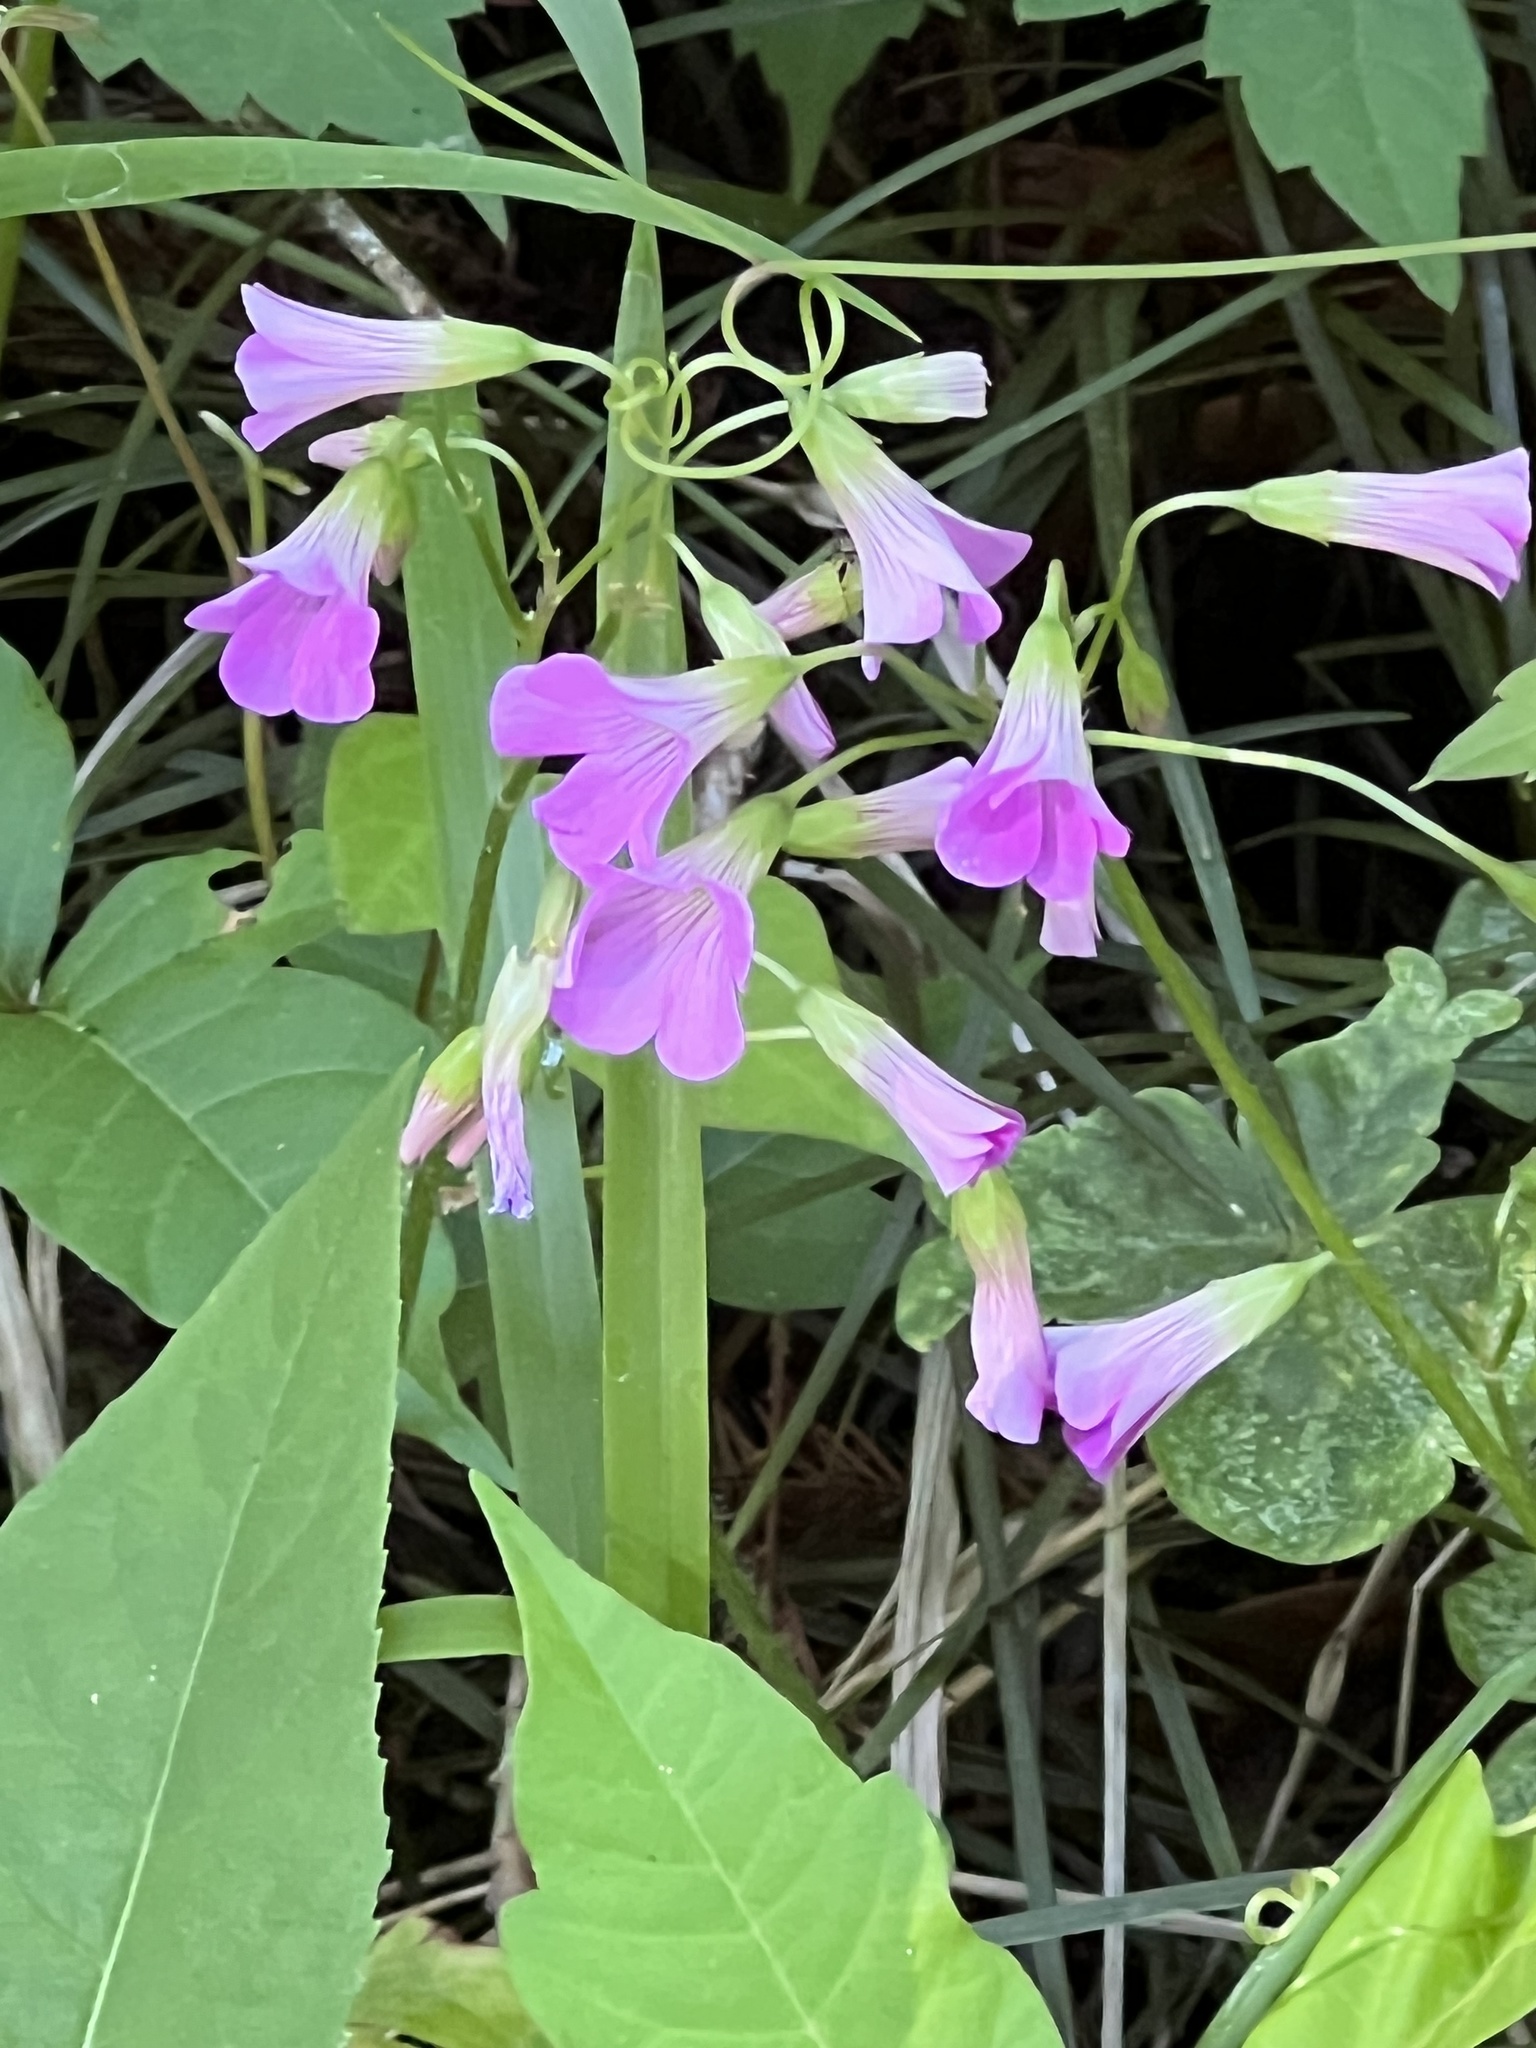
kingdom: Plantae
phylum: Tracheophyta
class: Magnoliopsida
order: Oxalidales
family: Oxalidaceae
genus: Oxalis
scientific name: Oxalis debilis
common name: Large-flowered pink-sorrel
